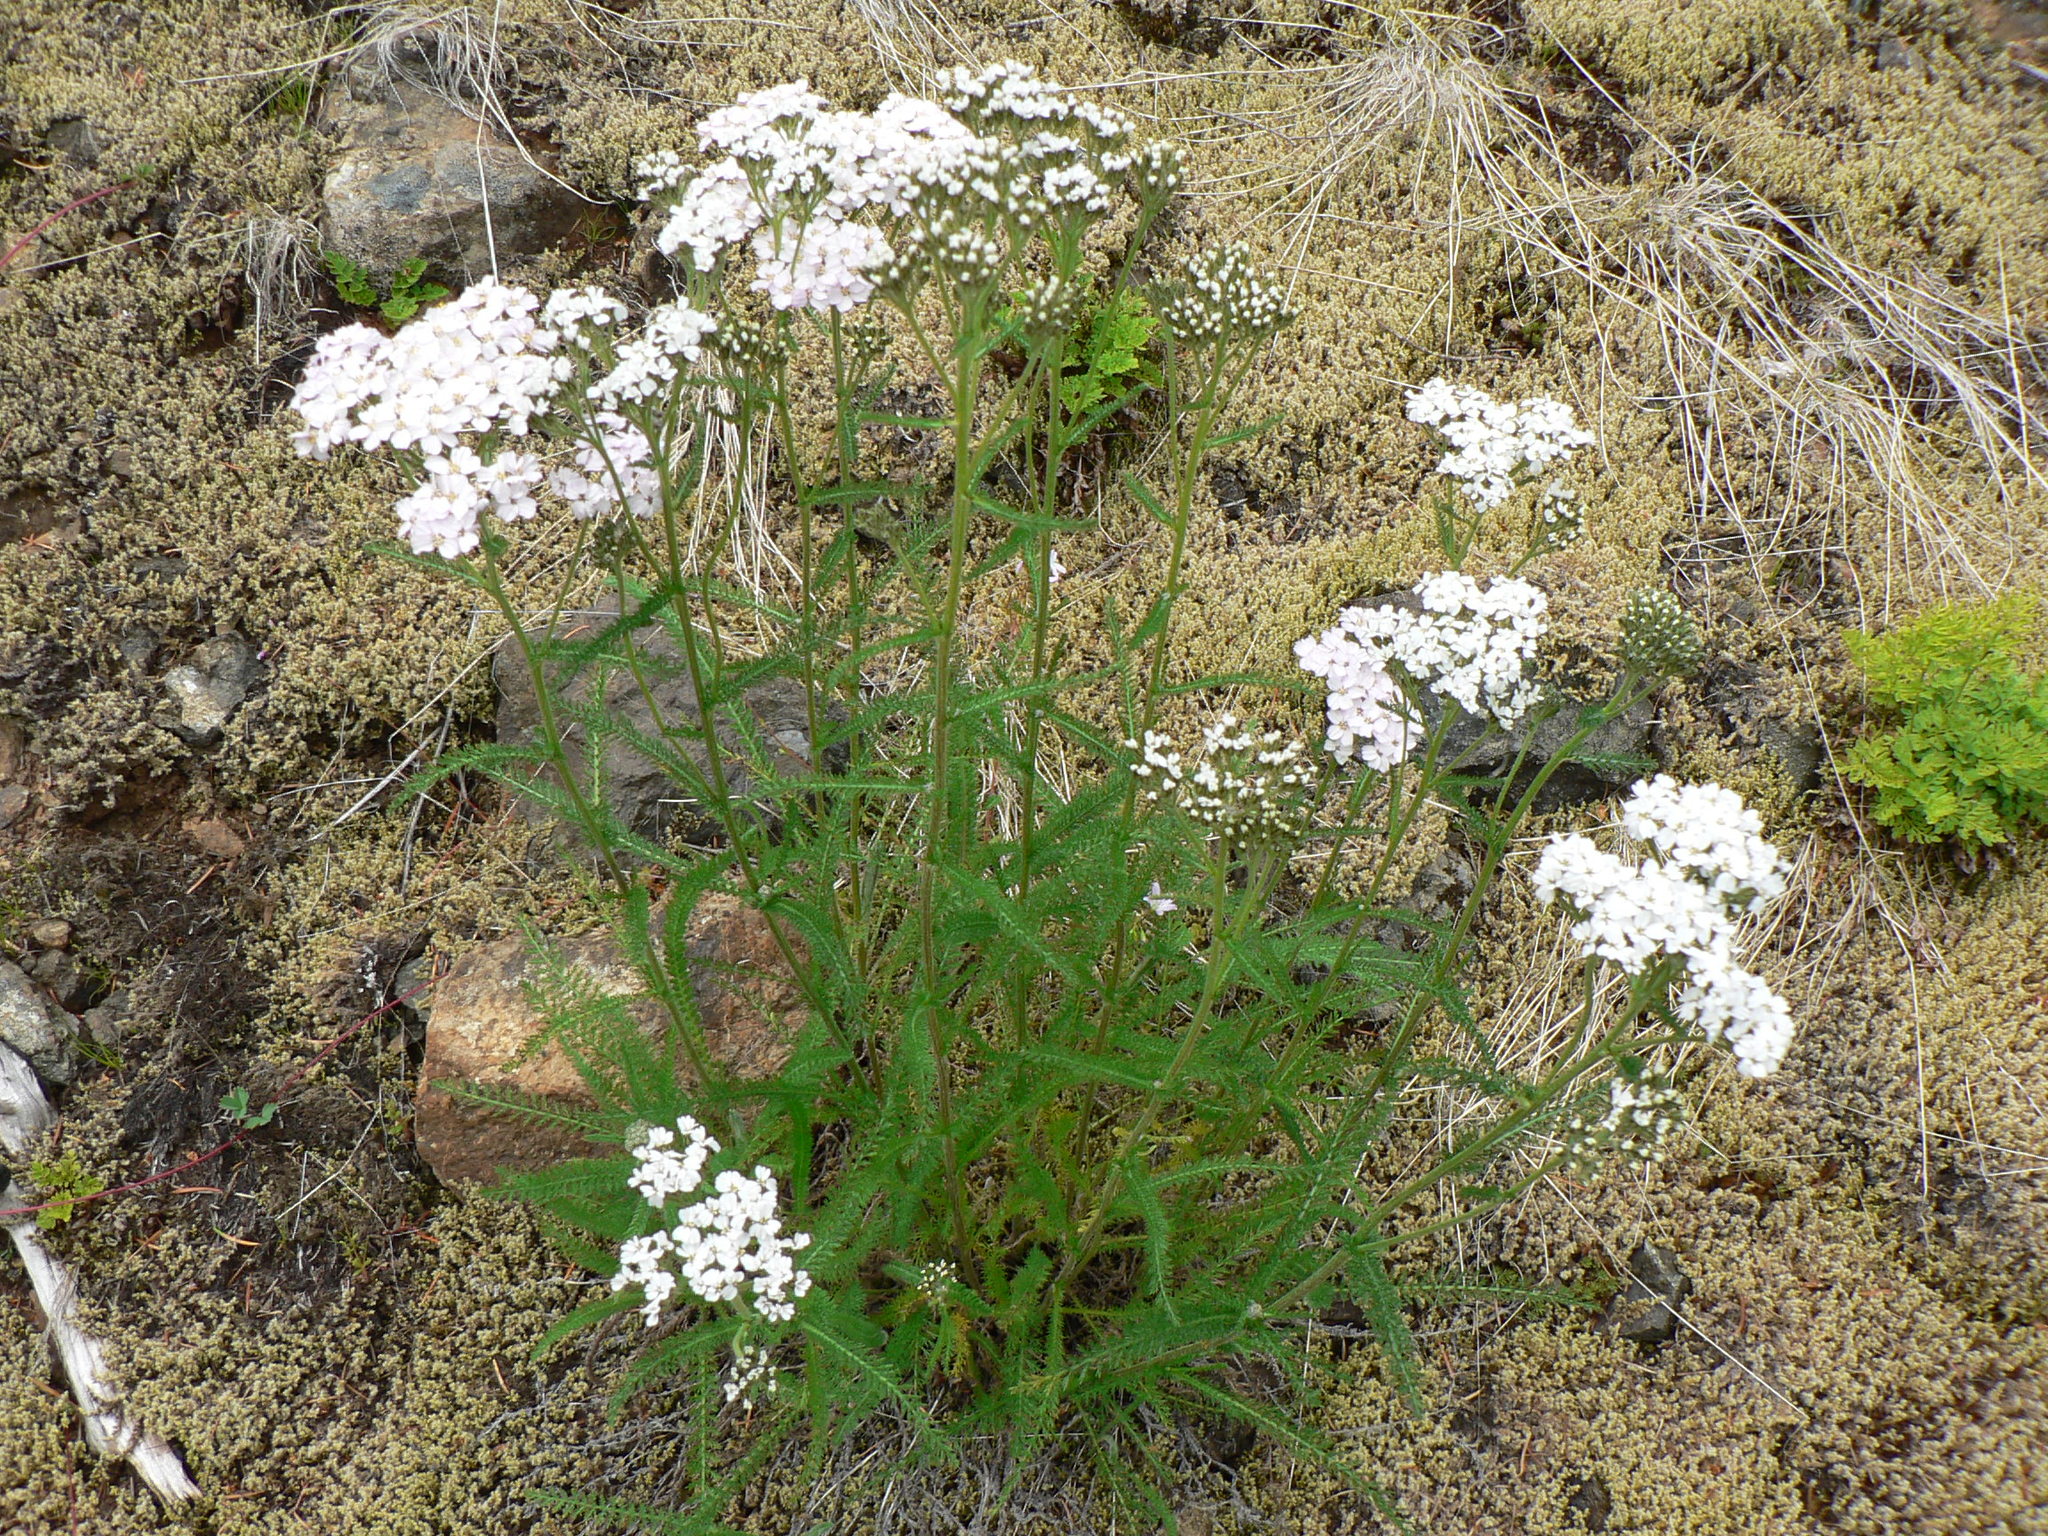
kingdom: Plantae
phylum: Tracheophyta
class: Magnoliopsida
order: Asterales
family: Asteraceae
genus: Achillea
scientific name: Achillea millefolium
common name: Yarrow
